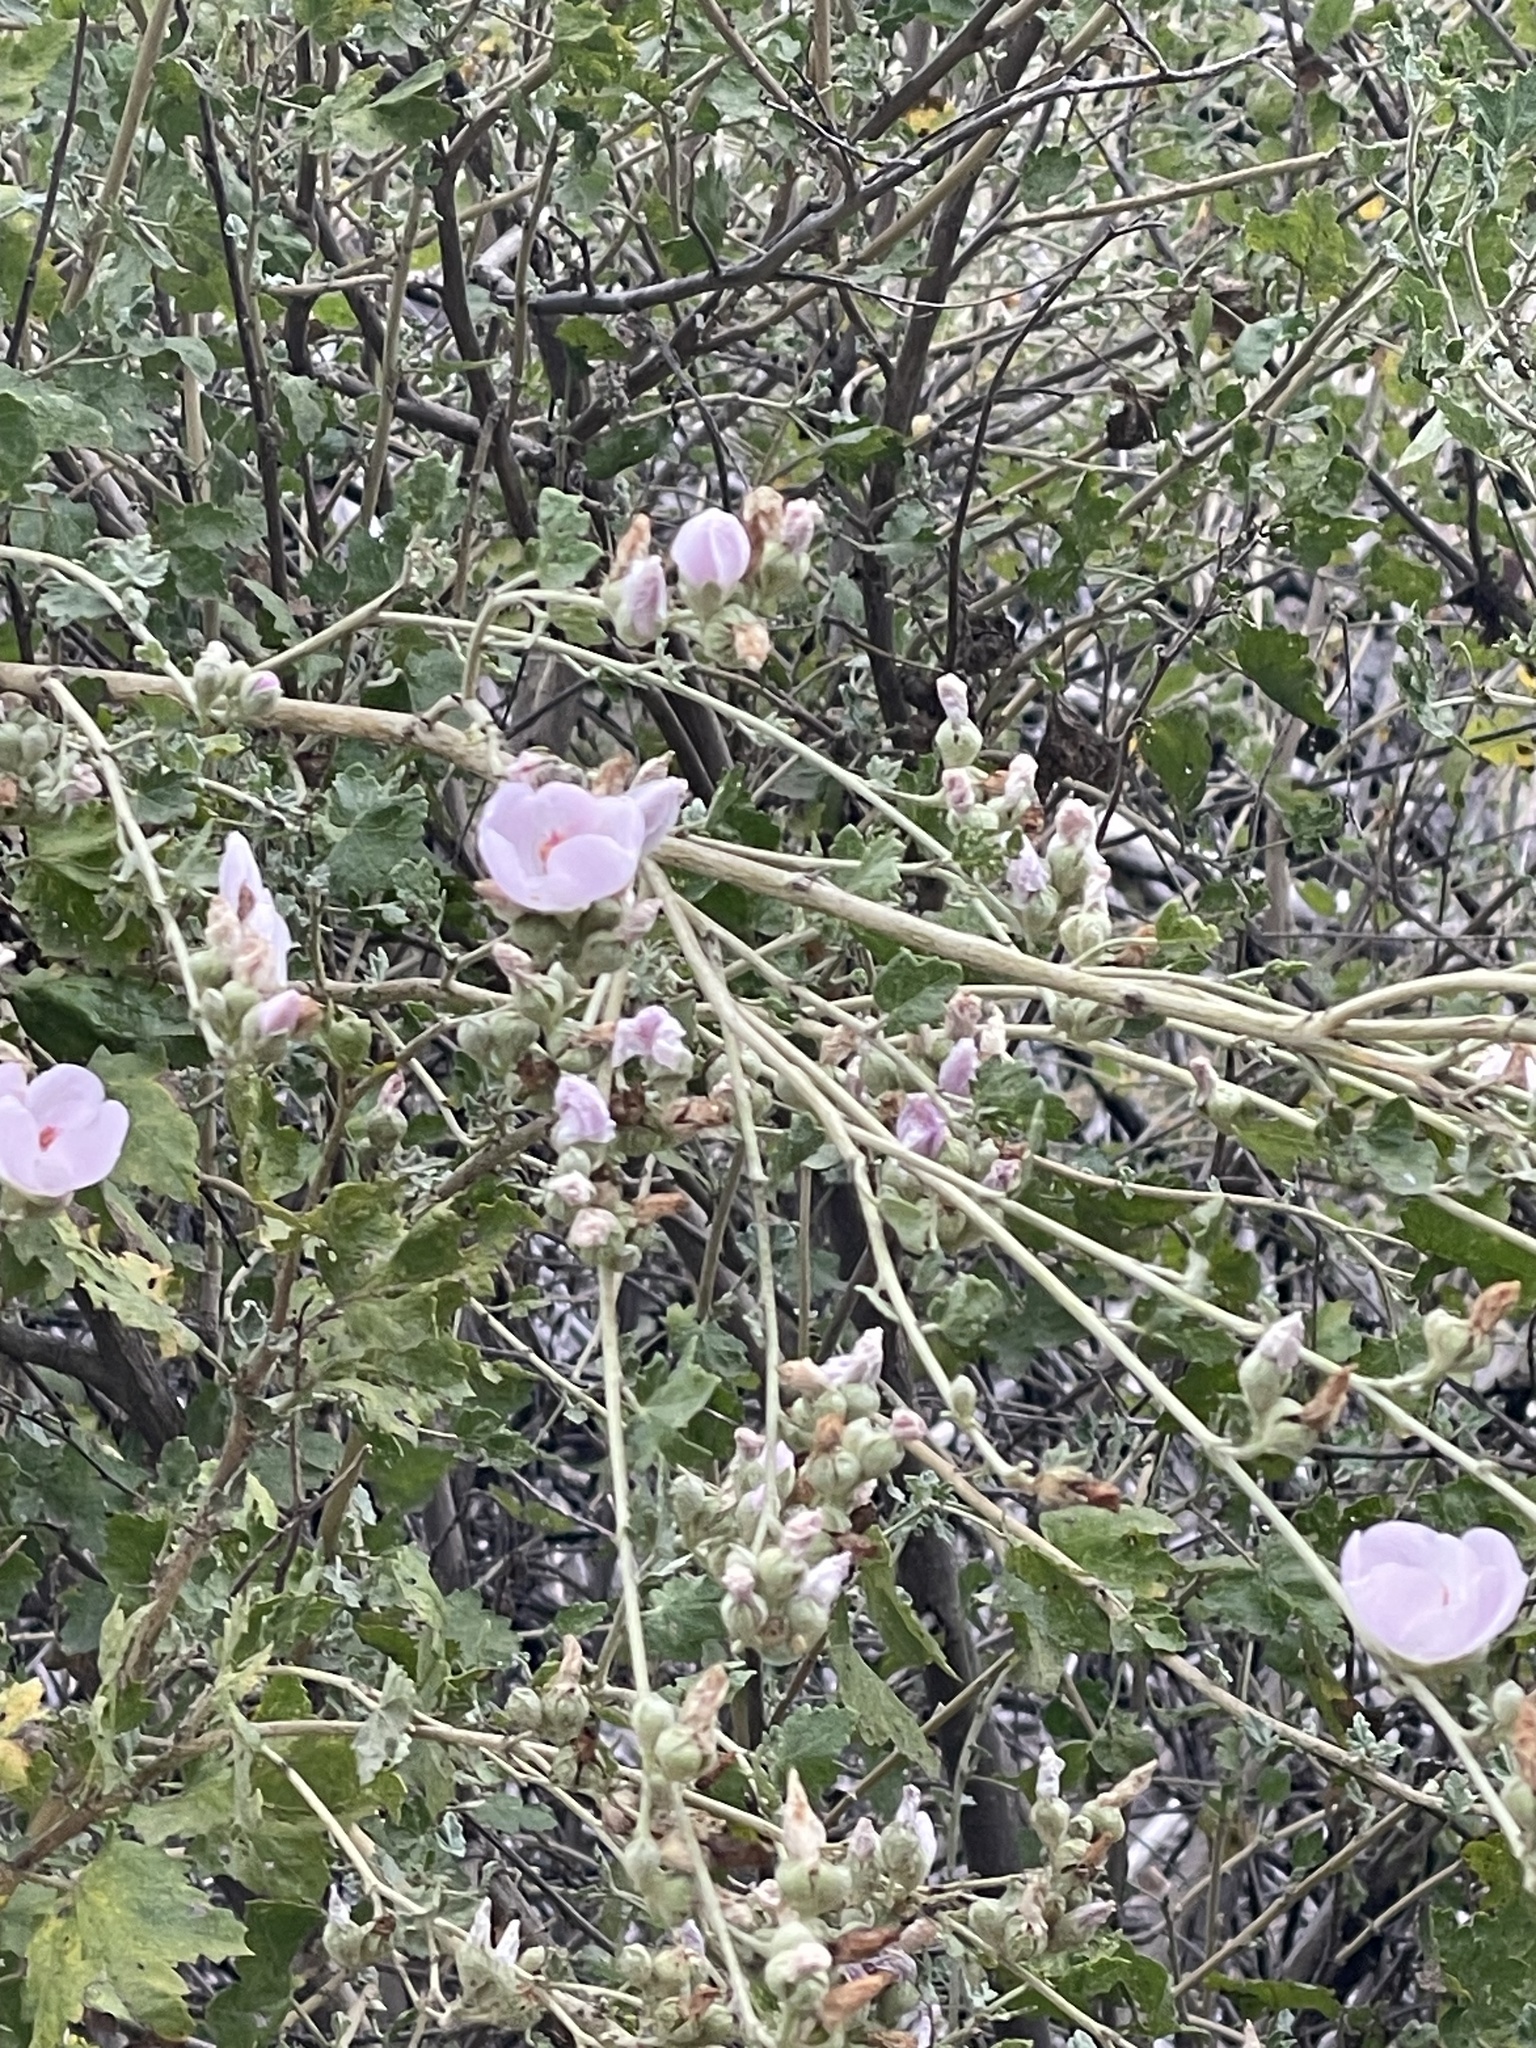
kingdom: Plantae
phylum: Tracheophyta
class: Magnoliopsida
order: Malvales
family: Malvaceae
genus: Malacothamnus
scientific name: Malacothamnus fasciculatus
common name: Sant cruz island bush-mallow
